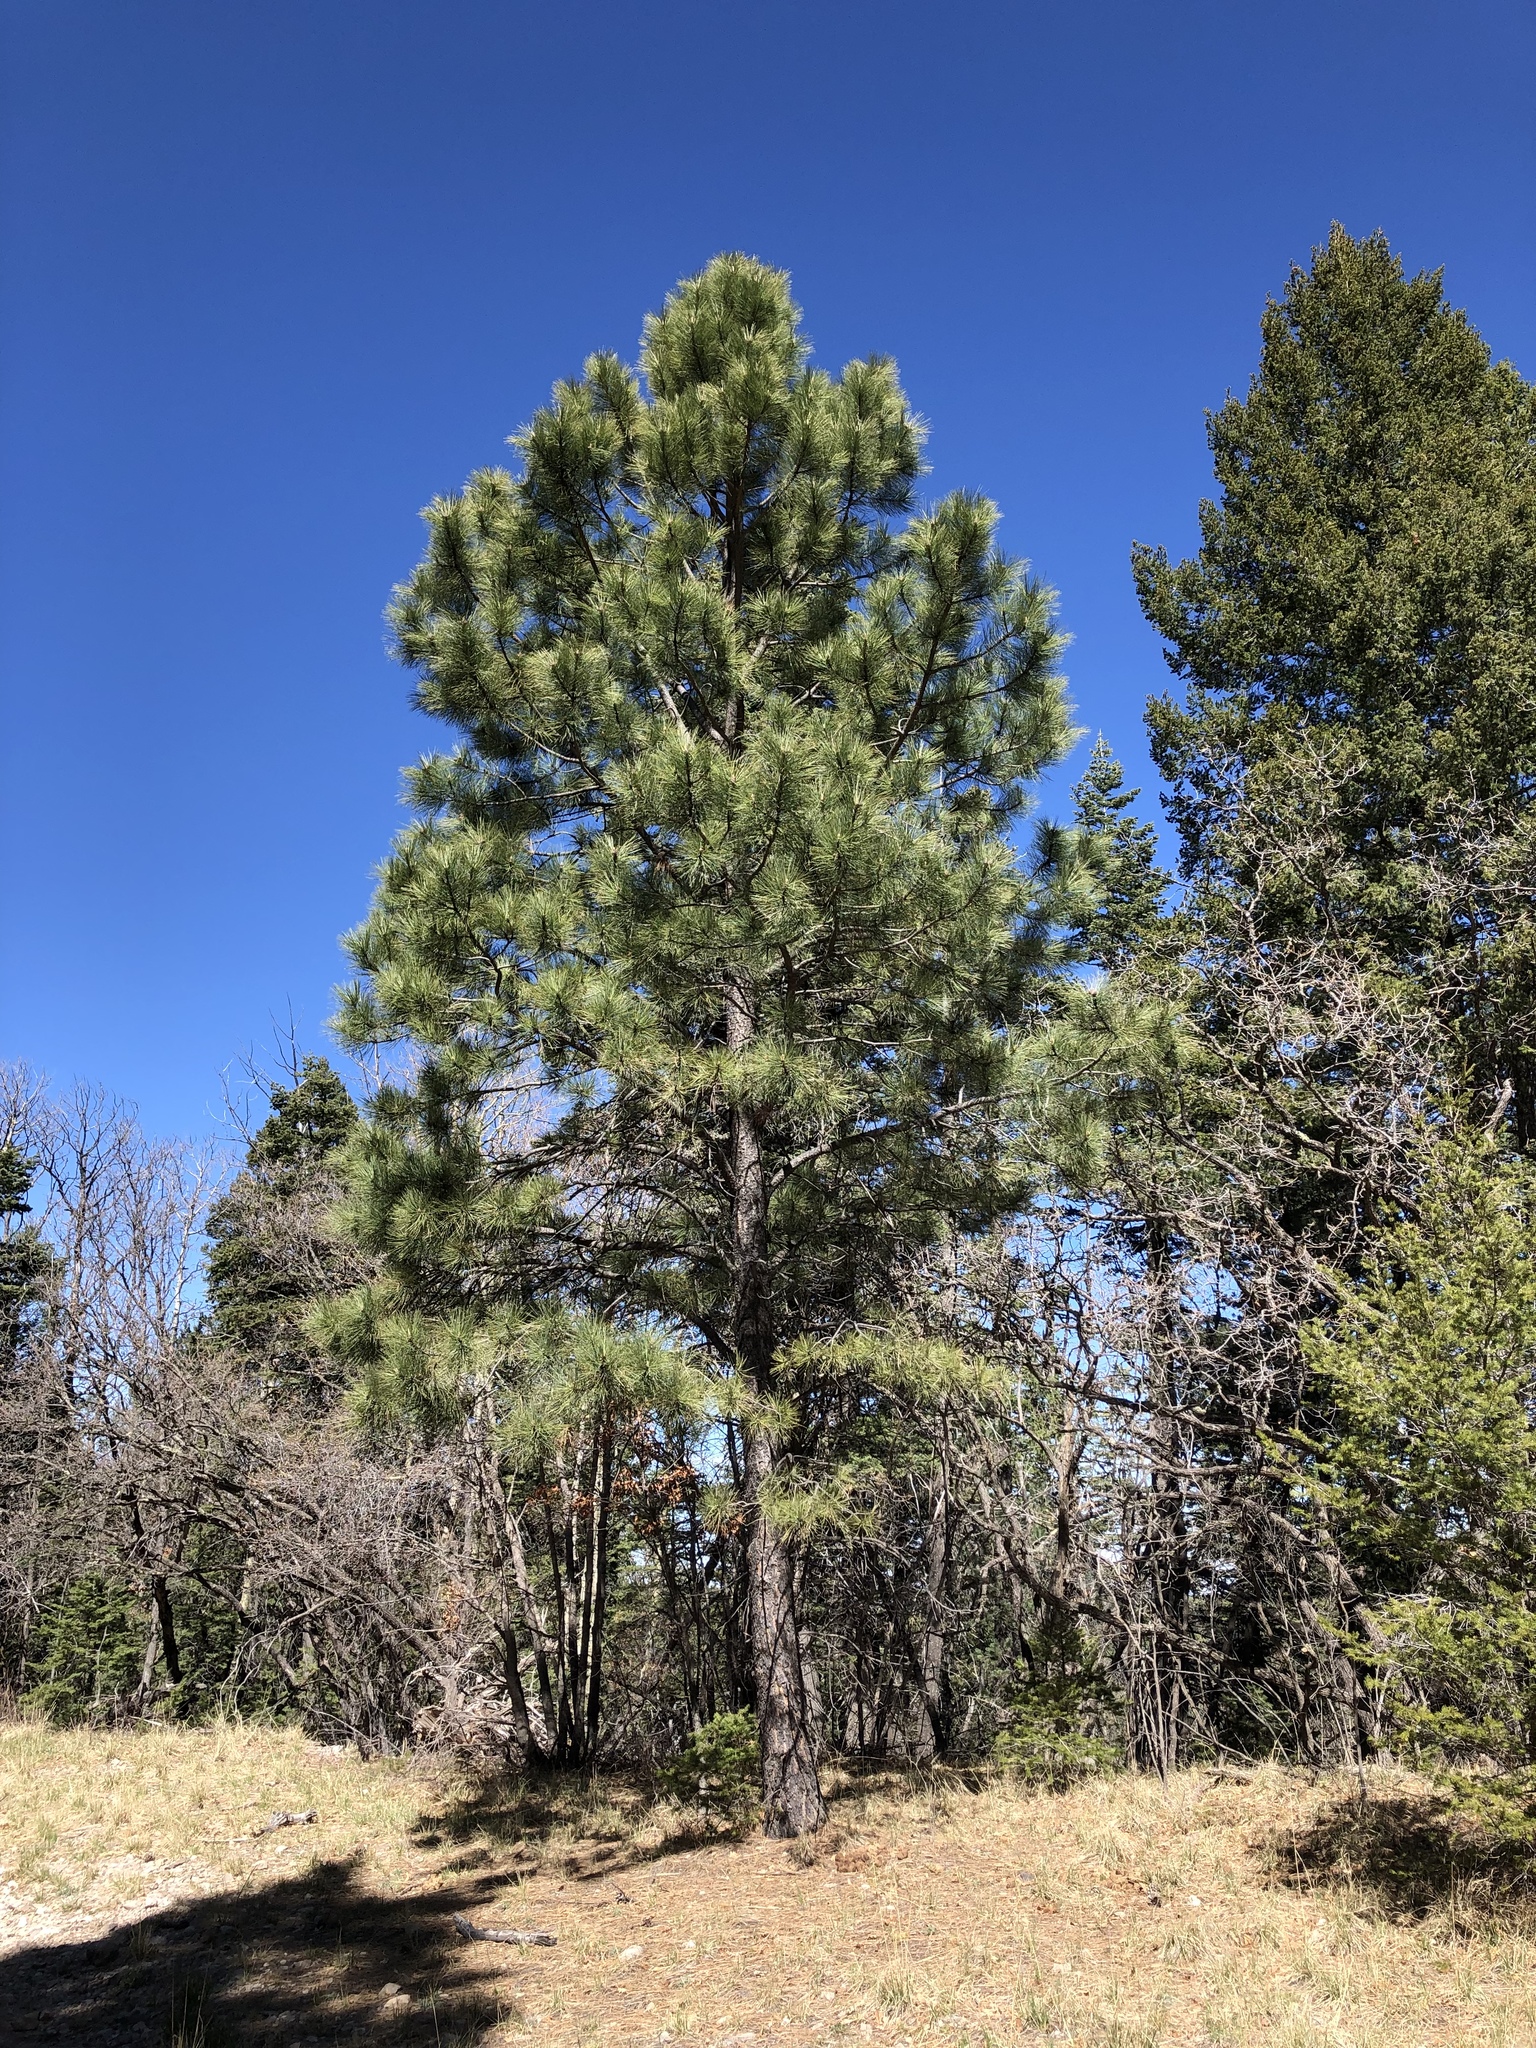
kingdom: Plantae
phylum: Tracheophyta
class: Pinopsida
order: Pinales
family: Pinaceae
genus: Pinus
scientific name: Pinus ponderosa
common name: Western yellow-pine
